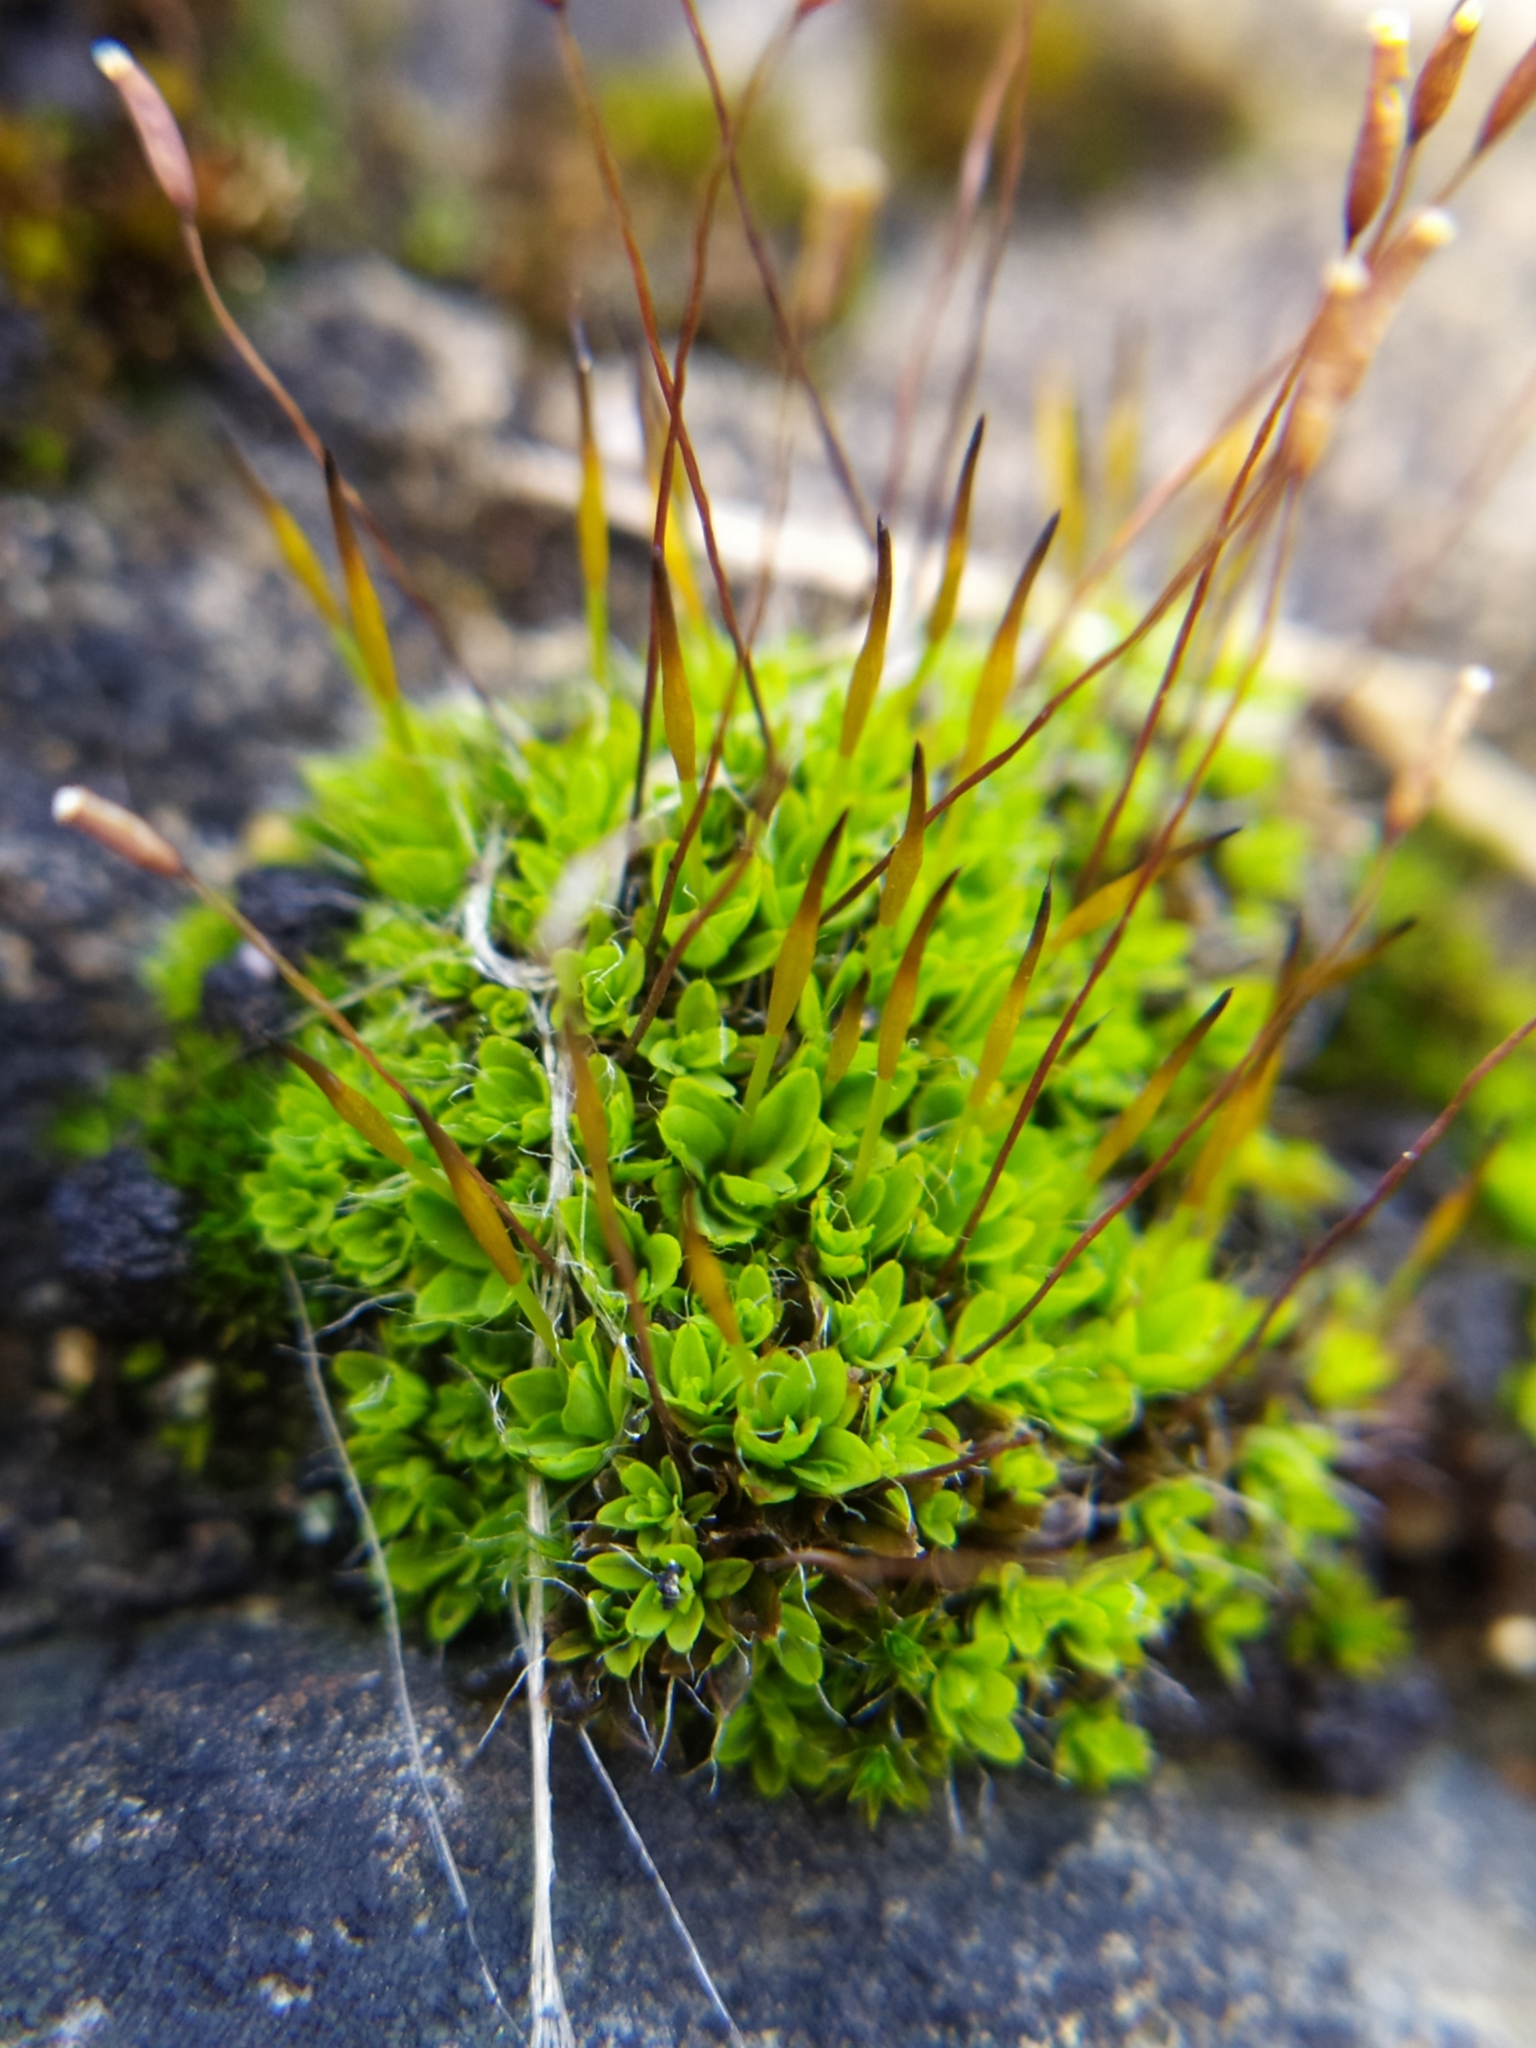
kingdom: Plantae
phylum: Bryophyta
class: Bryopsida
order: Pottiales
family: Pottiaceae
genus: Tortula
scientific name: Tortula muralis
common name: Wall screw-moss
